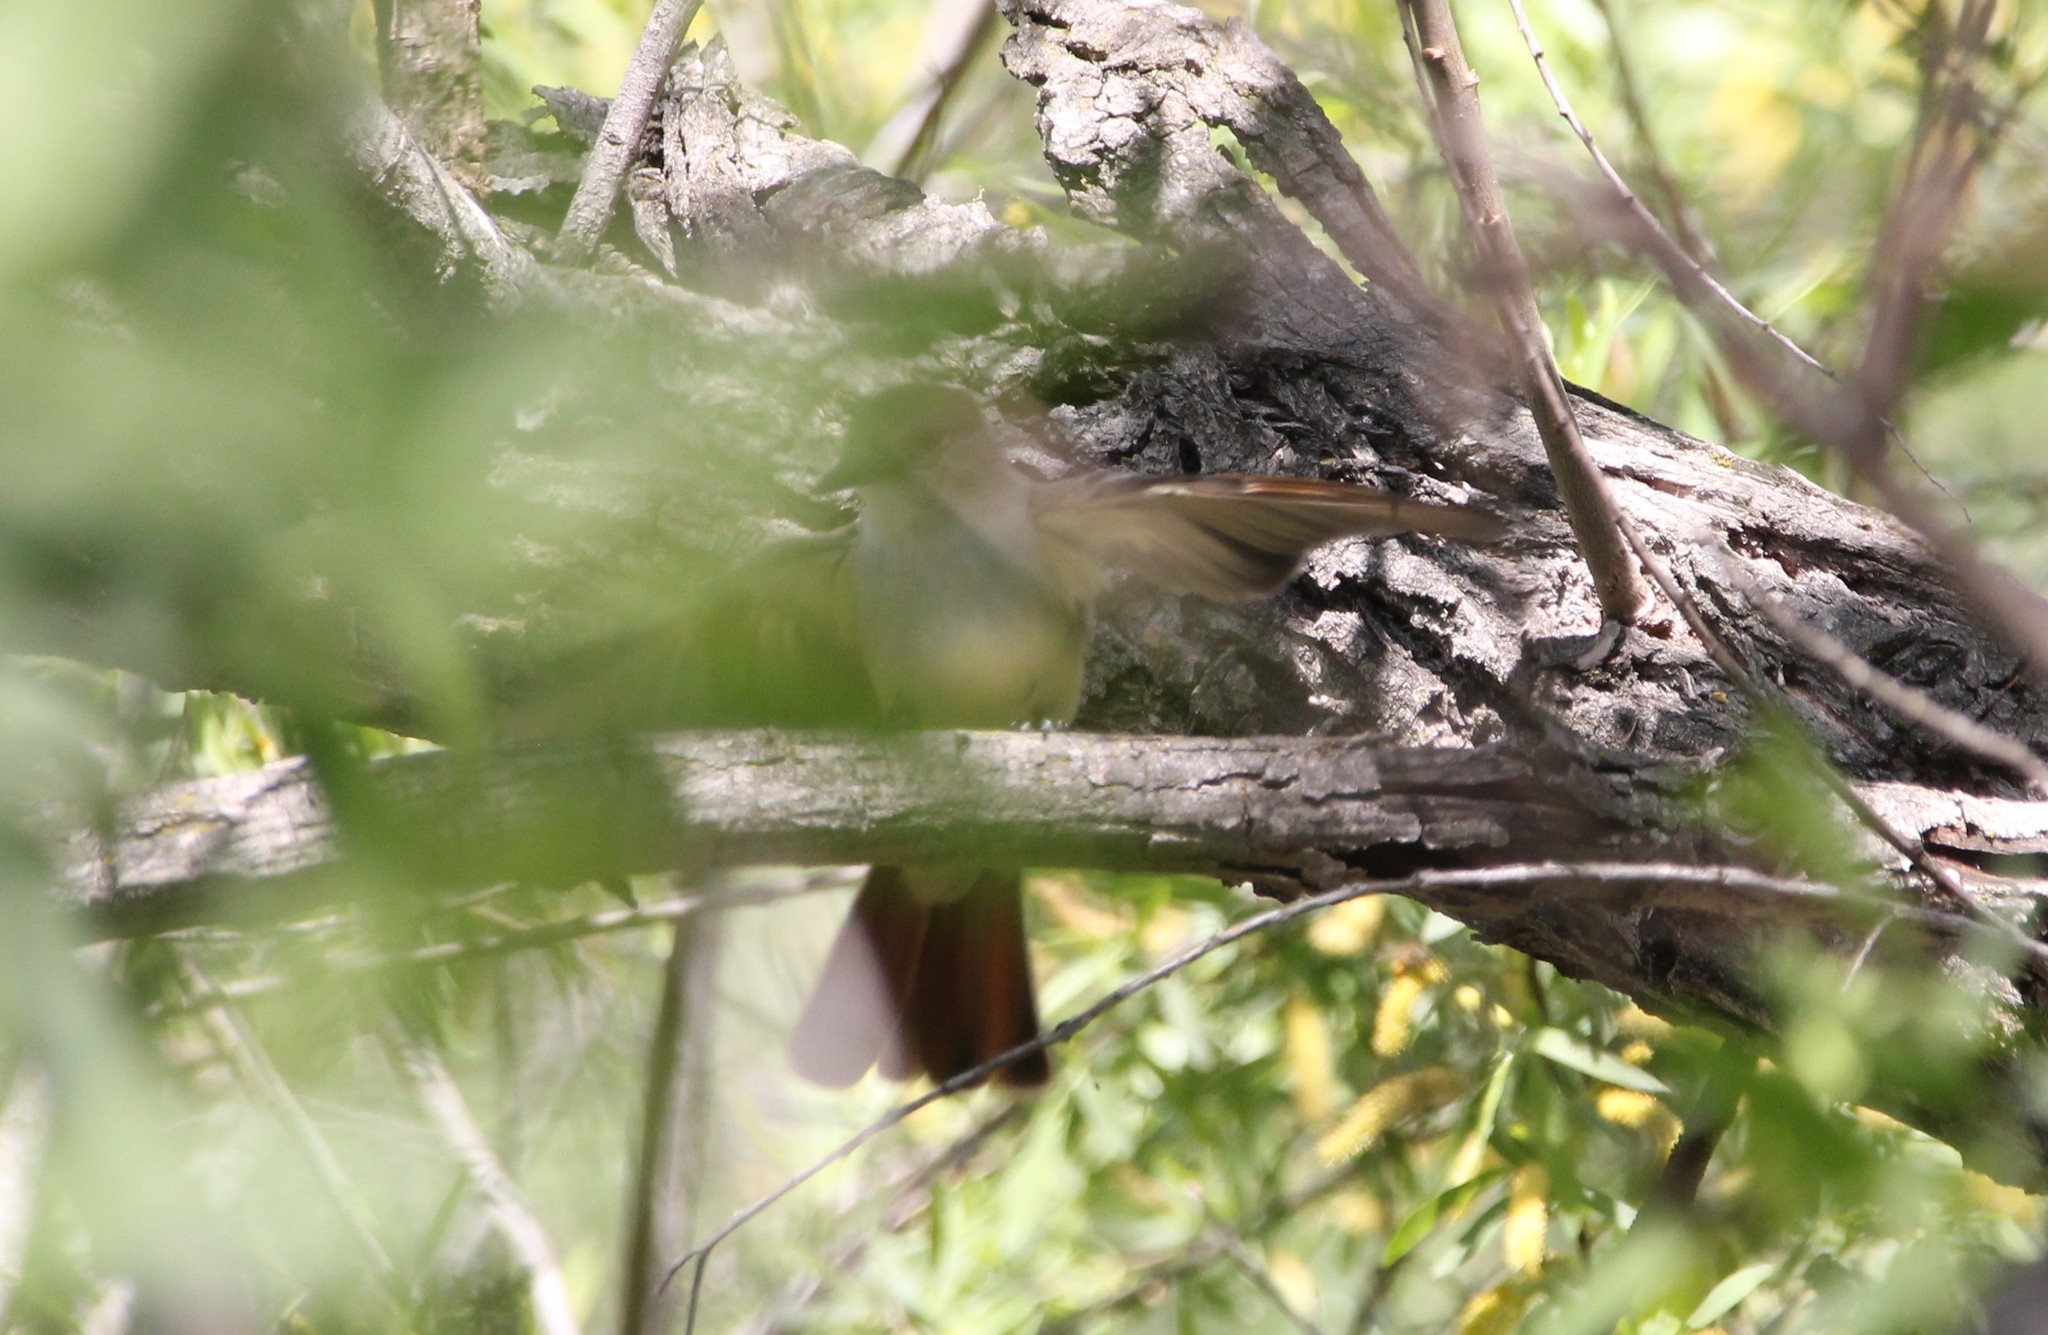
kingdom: Animalia
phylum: Chordata
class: Aves
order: Passeriformes
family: Tyrannidae
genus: Myiarchus
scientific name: Myiarchus cinerascens
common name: Ash-throated flycatcher
